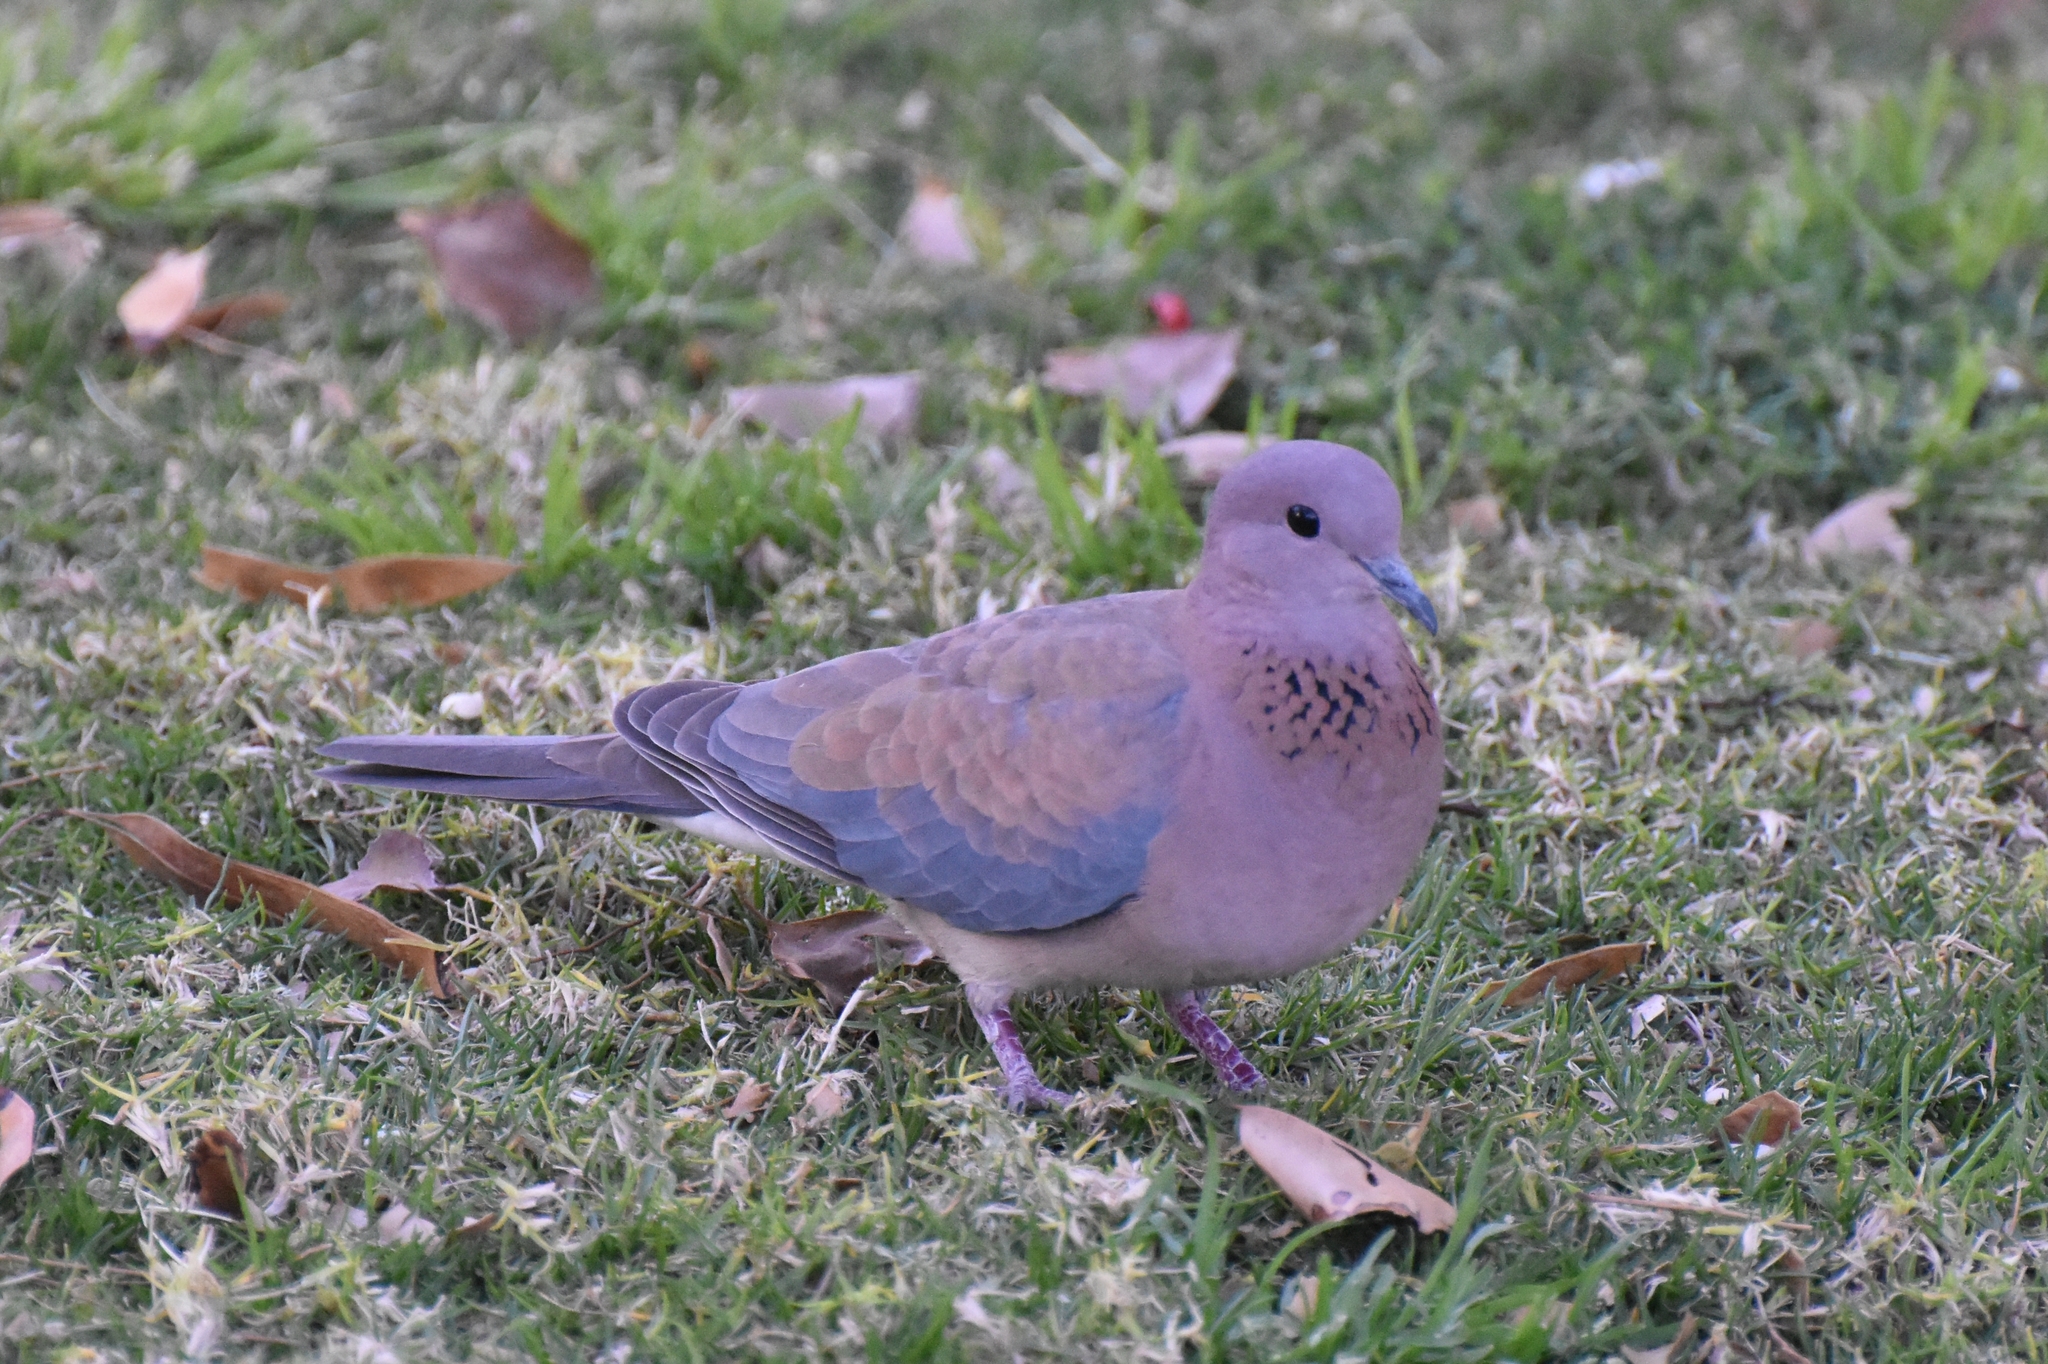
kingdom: Animalia
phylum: Chordata
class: Aves
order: Columbiformes
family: Columbidae
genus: Spilopelia
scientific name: Spilopelia senegalensis
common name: Laughing dove
